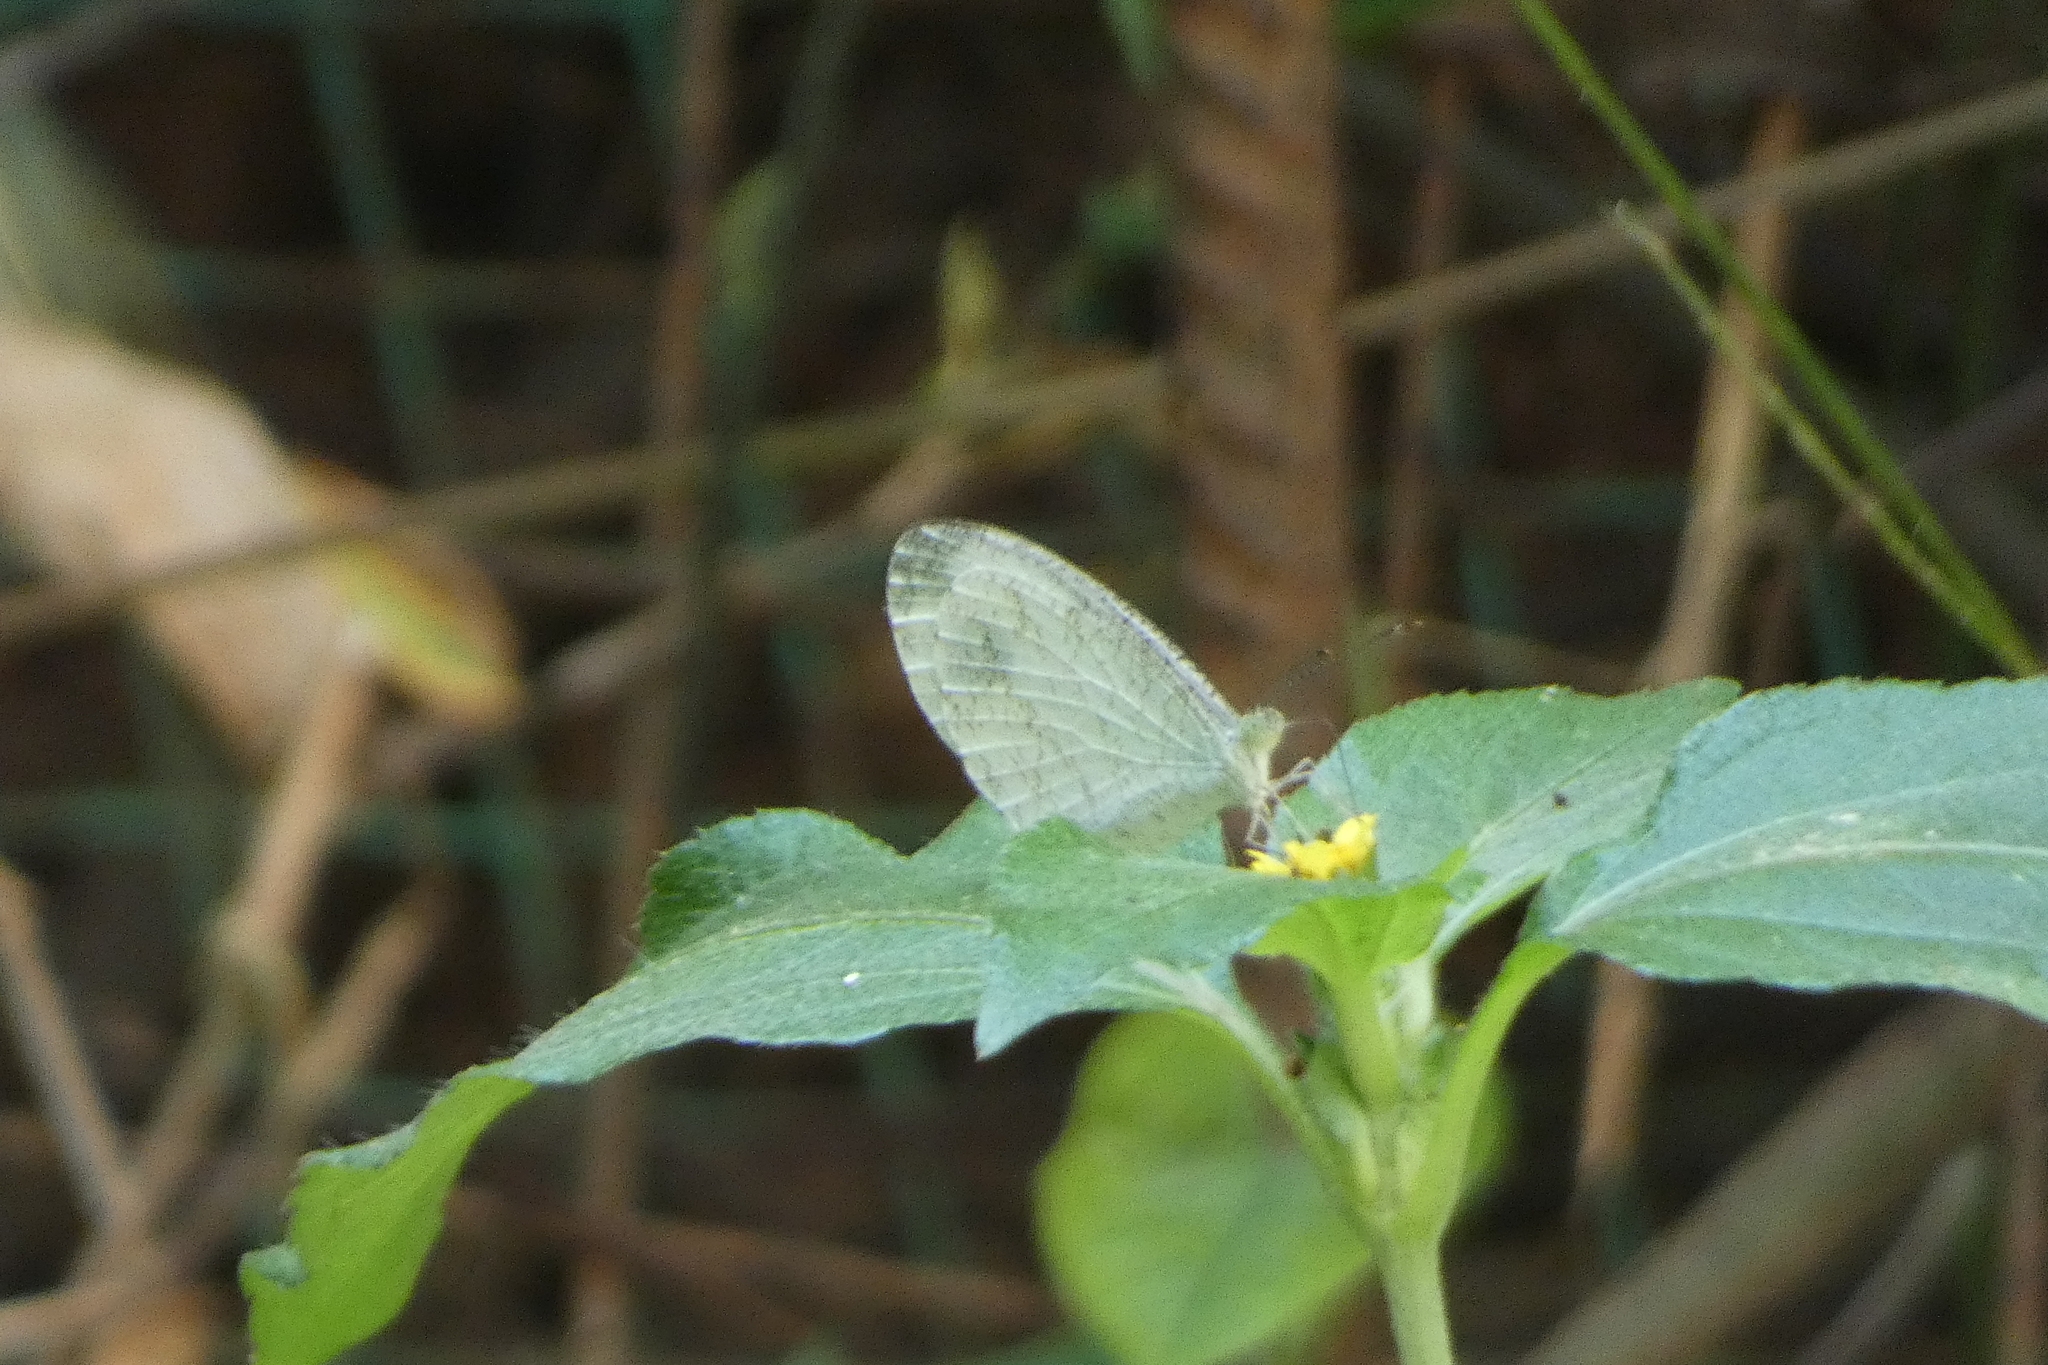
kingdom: Animalia
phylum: Arthropoda
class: Insecta
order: Lepidoptera
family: Pieridae
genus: Leptosia
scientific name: Leptosia nina
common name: Psyche
